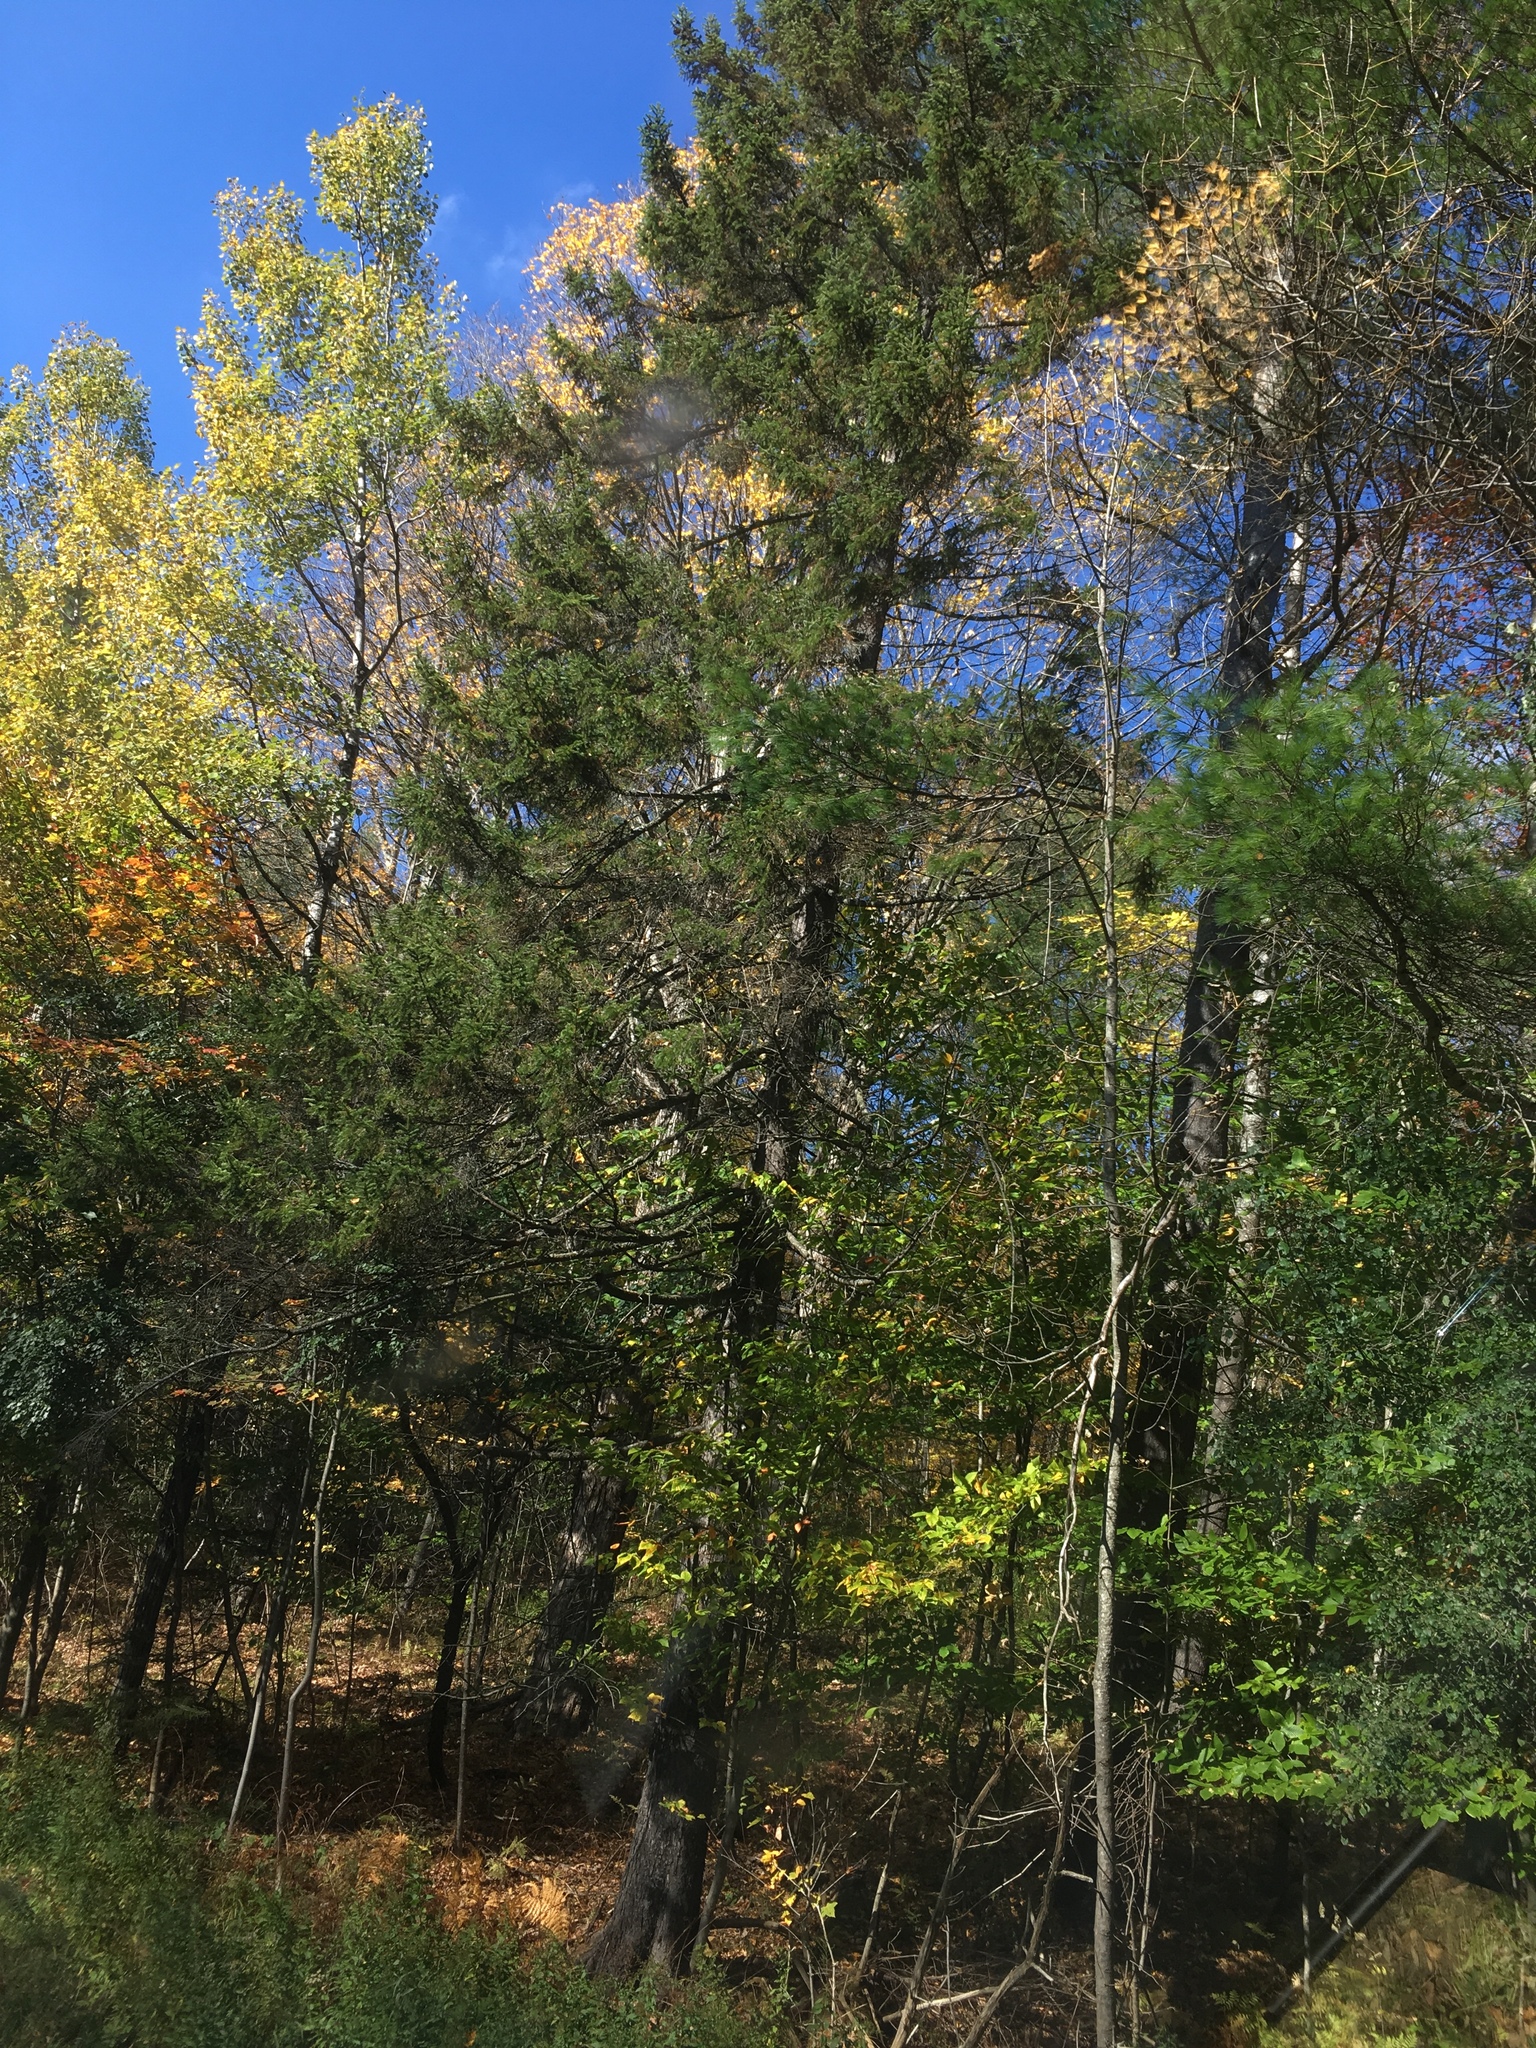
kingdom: Plantae
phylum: Tracheophyta
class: Magnoliopsida
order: Malpighiales
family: Salicaceae
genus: Populus
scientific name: Populus tremuloides
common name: Quaking aspen
